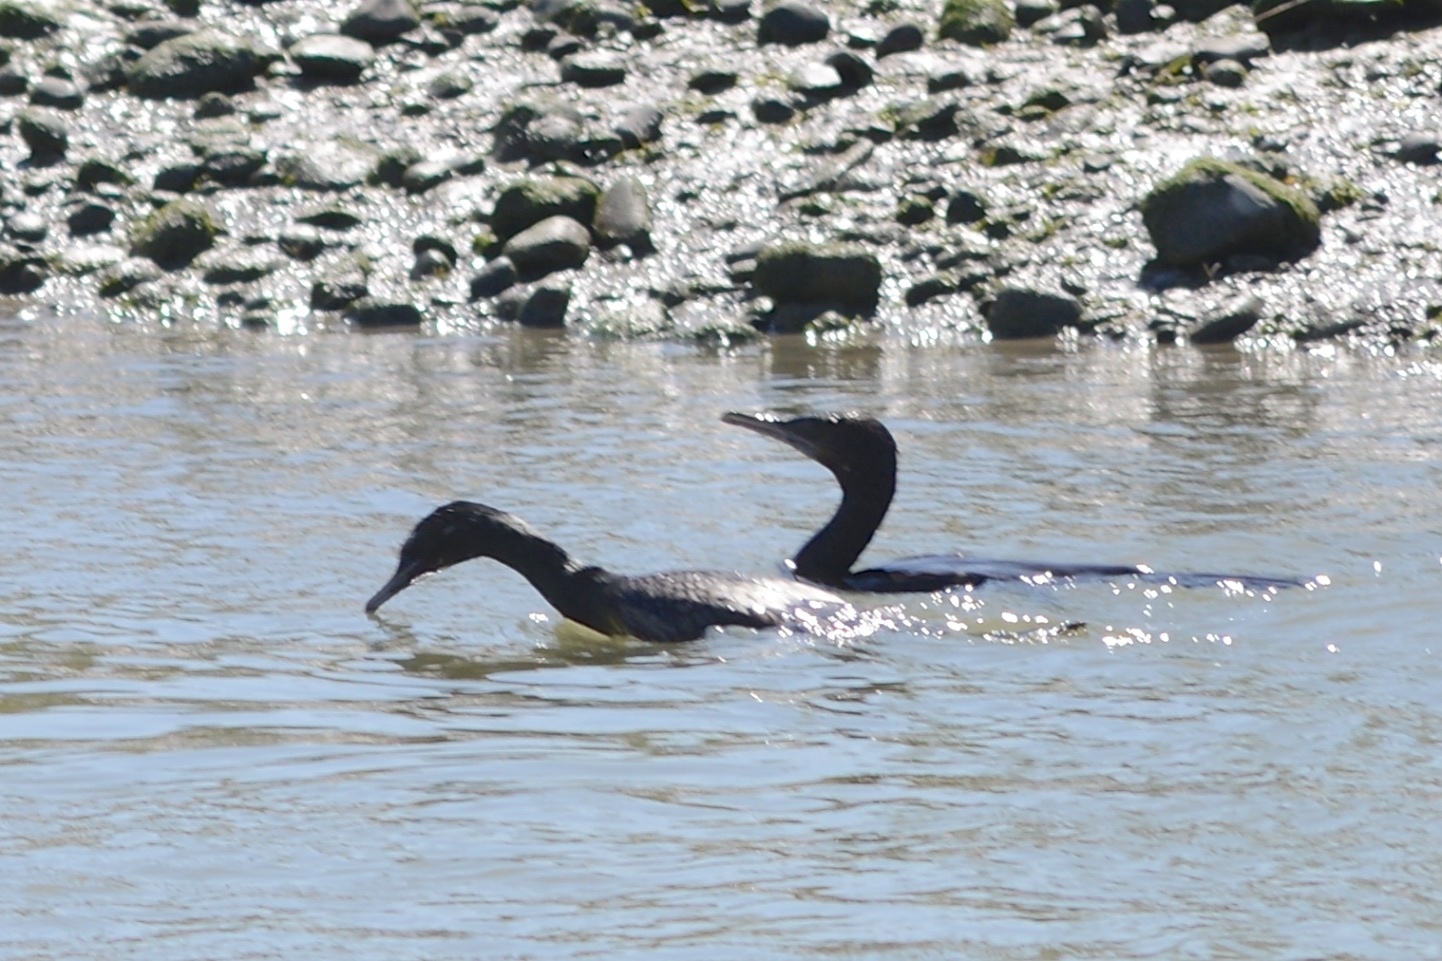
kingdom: Animalia
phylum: Chordata
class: Aves
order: Suliformes
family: Phalacrocoracidae
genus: Phalacrocorax
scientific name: Phalacrocorax sulcirostris
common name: Little black cormorant
